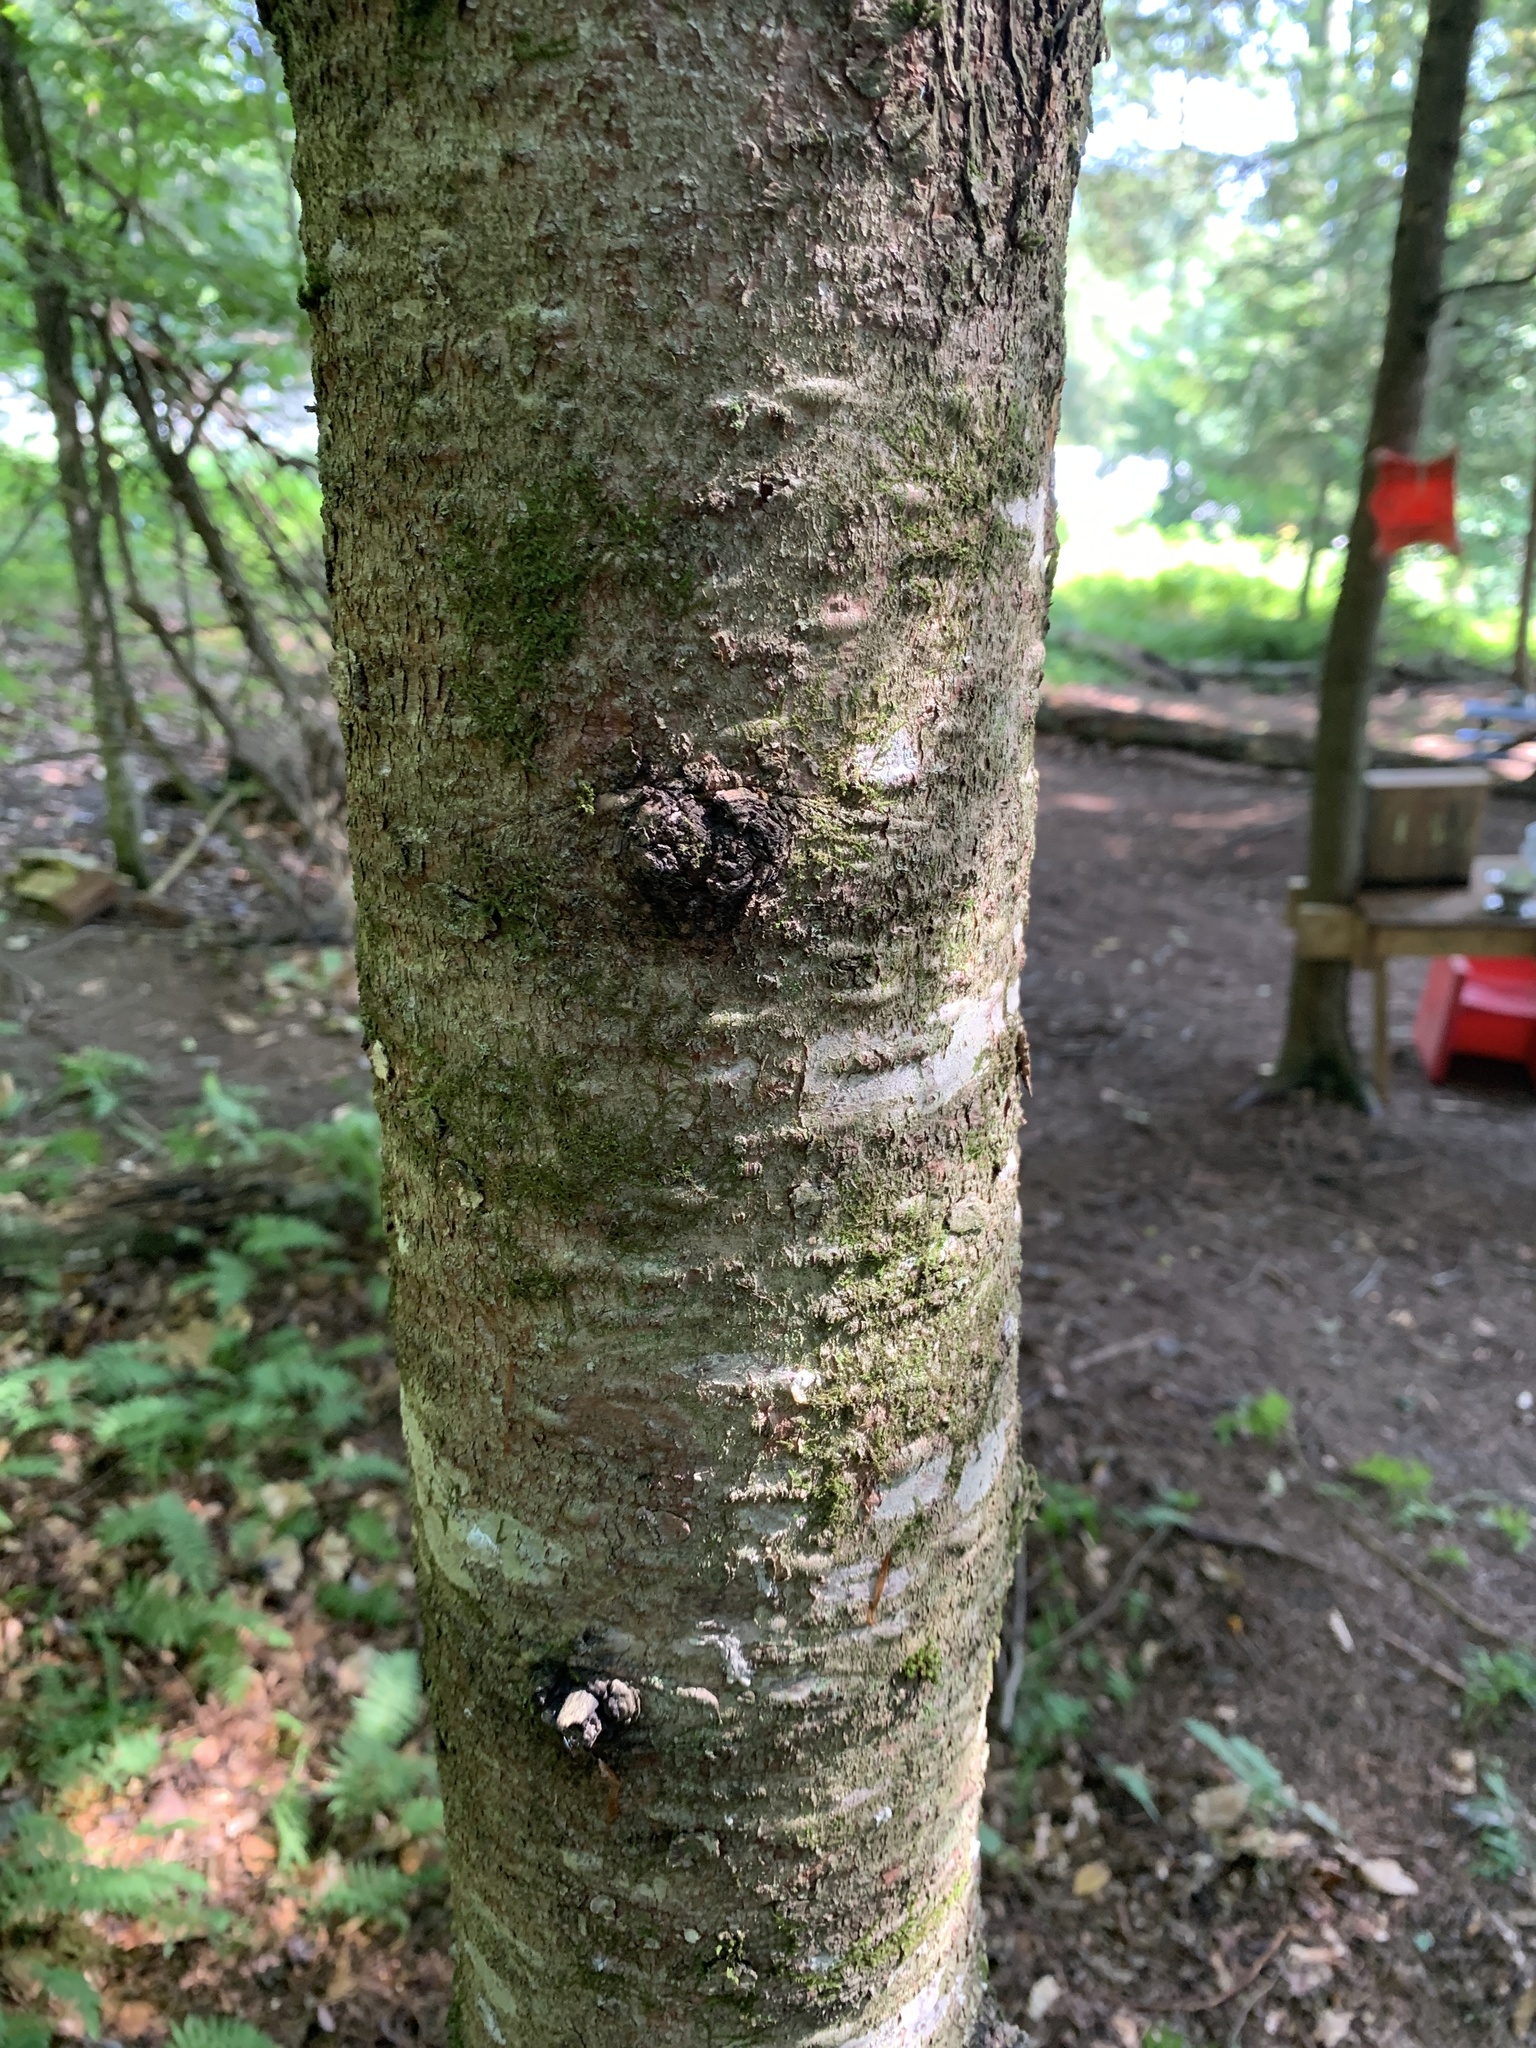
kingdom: Plantae
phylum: Tracheophyta
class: Pinopsida
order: Pinales
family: Pinaceae
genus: Abies
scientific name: Abies balsamea
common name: Balsam fir
